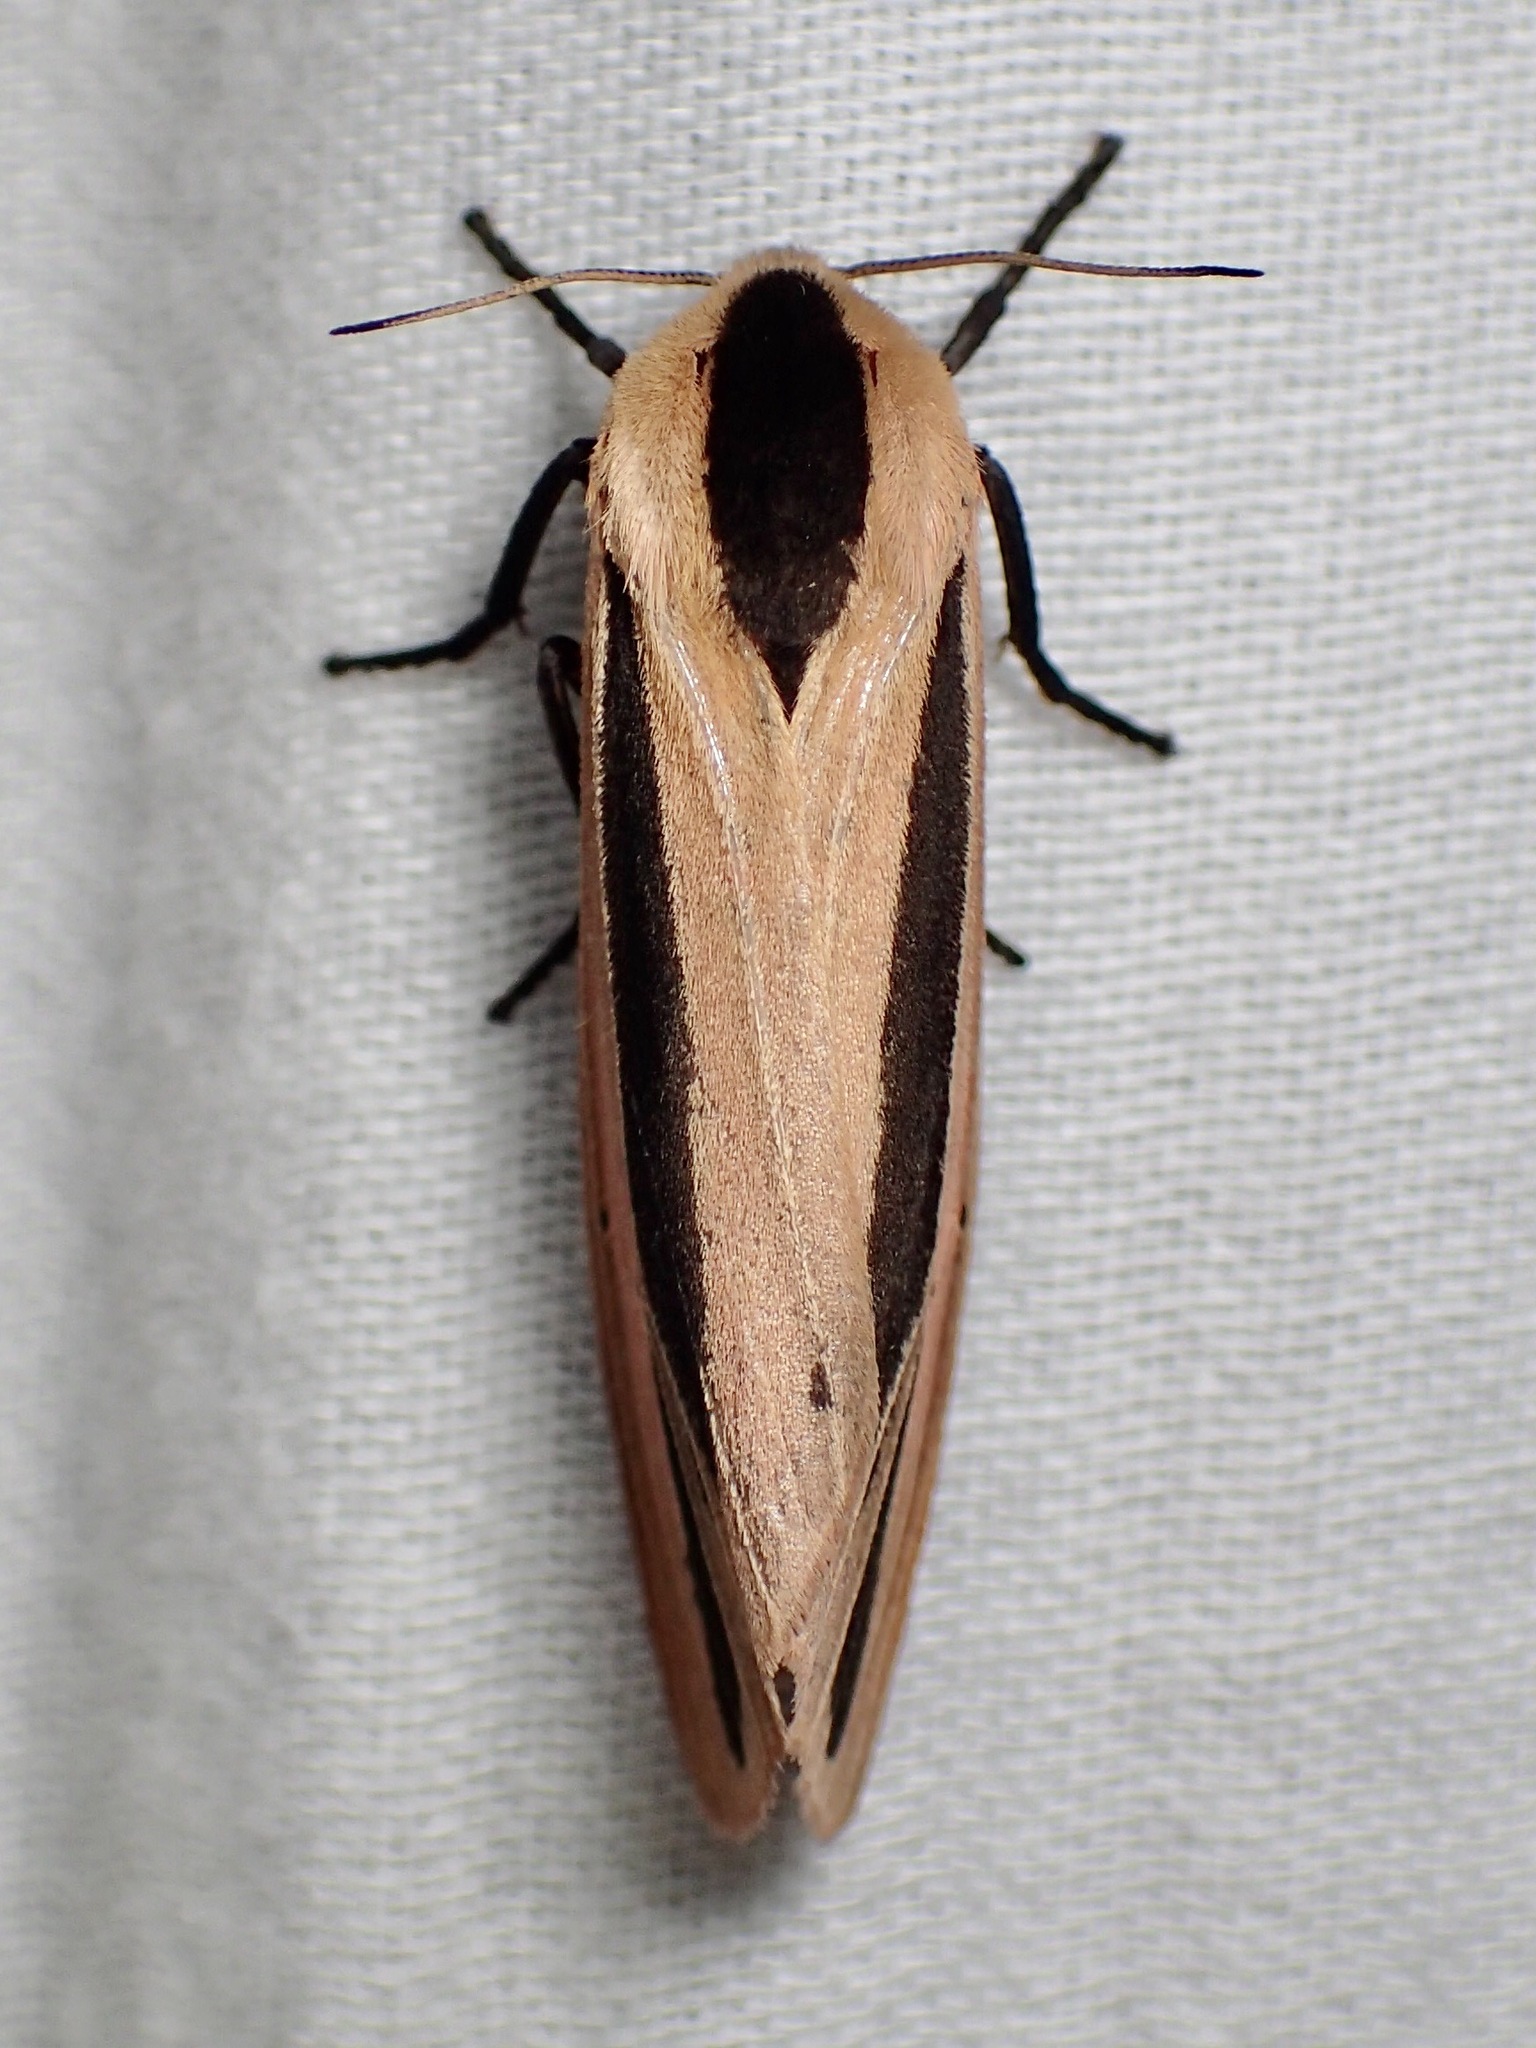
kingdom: Animalia
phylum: Arthropoda
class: Insecta
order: Lepidoptera
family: Erebidae
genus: Creatonotos
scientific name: Creatonotos gangis
